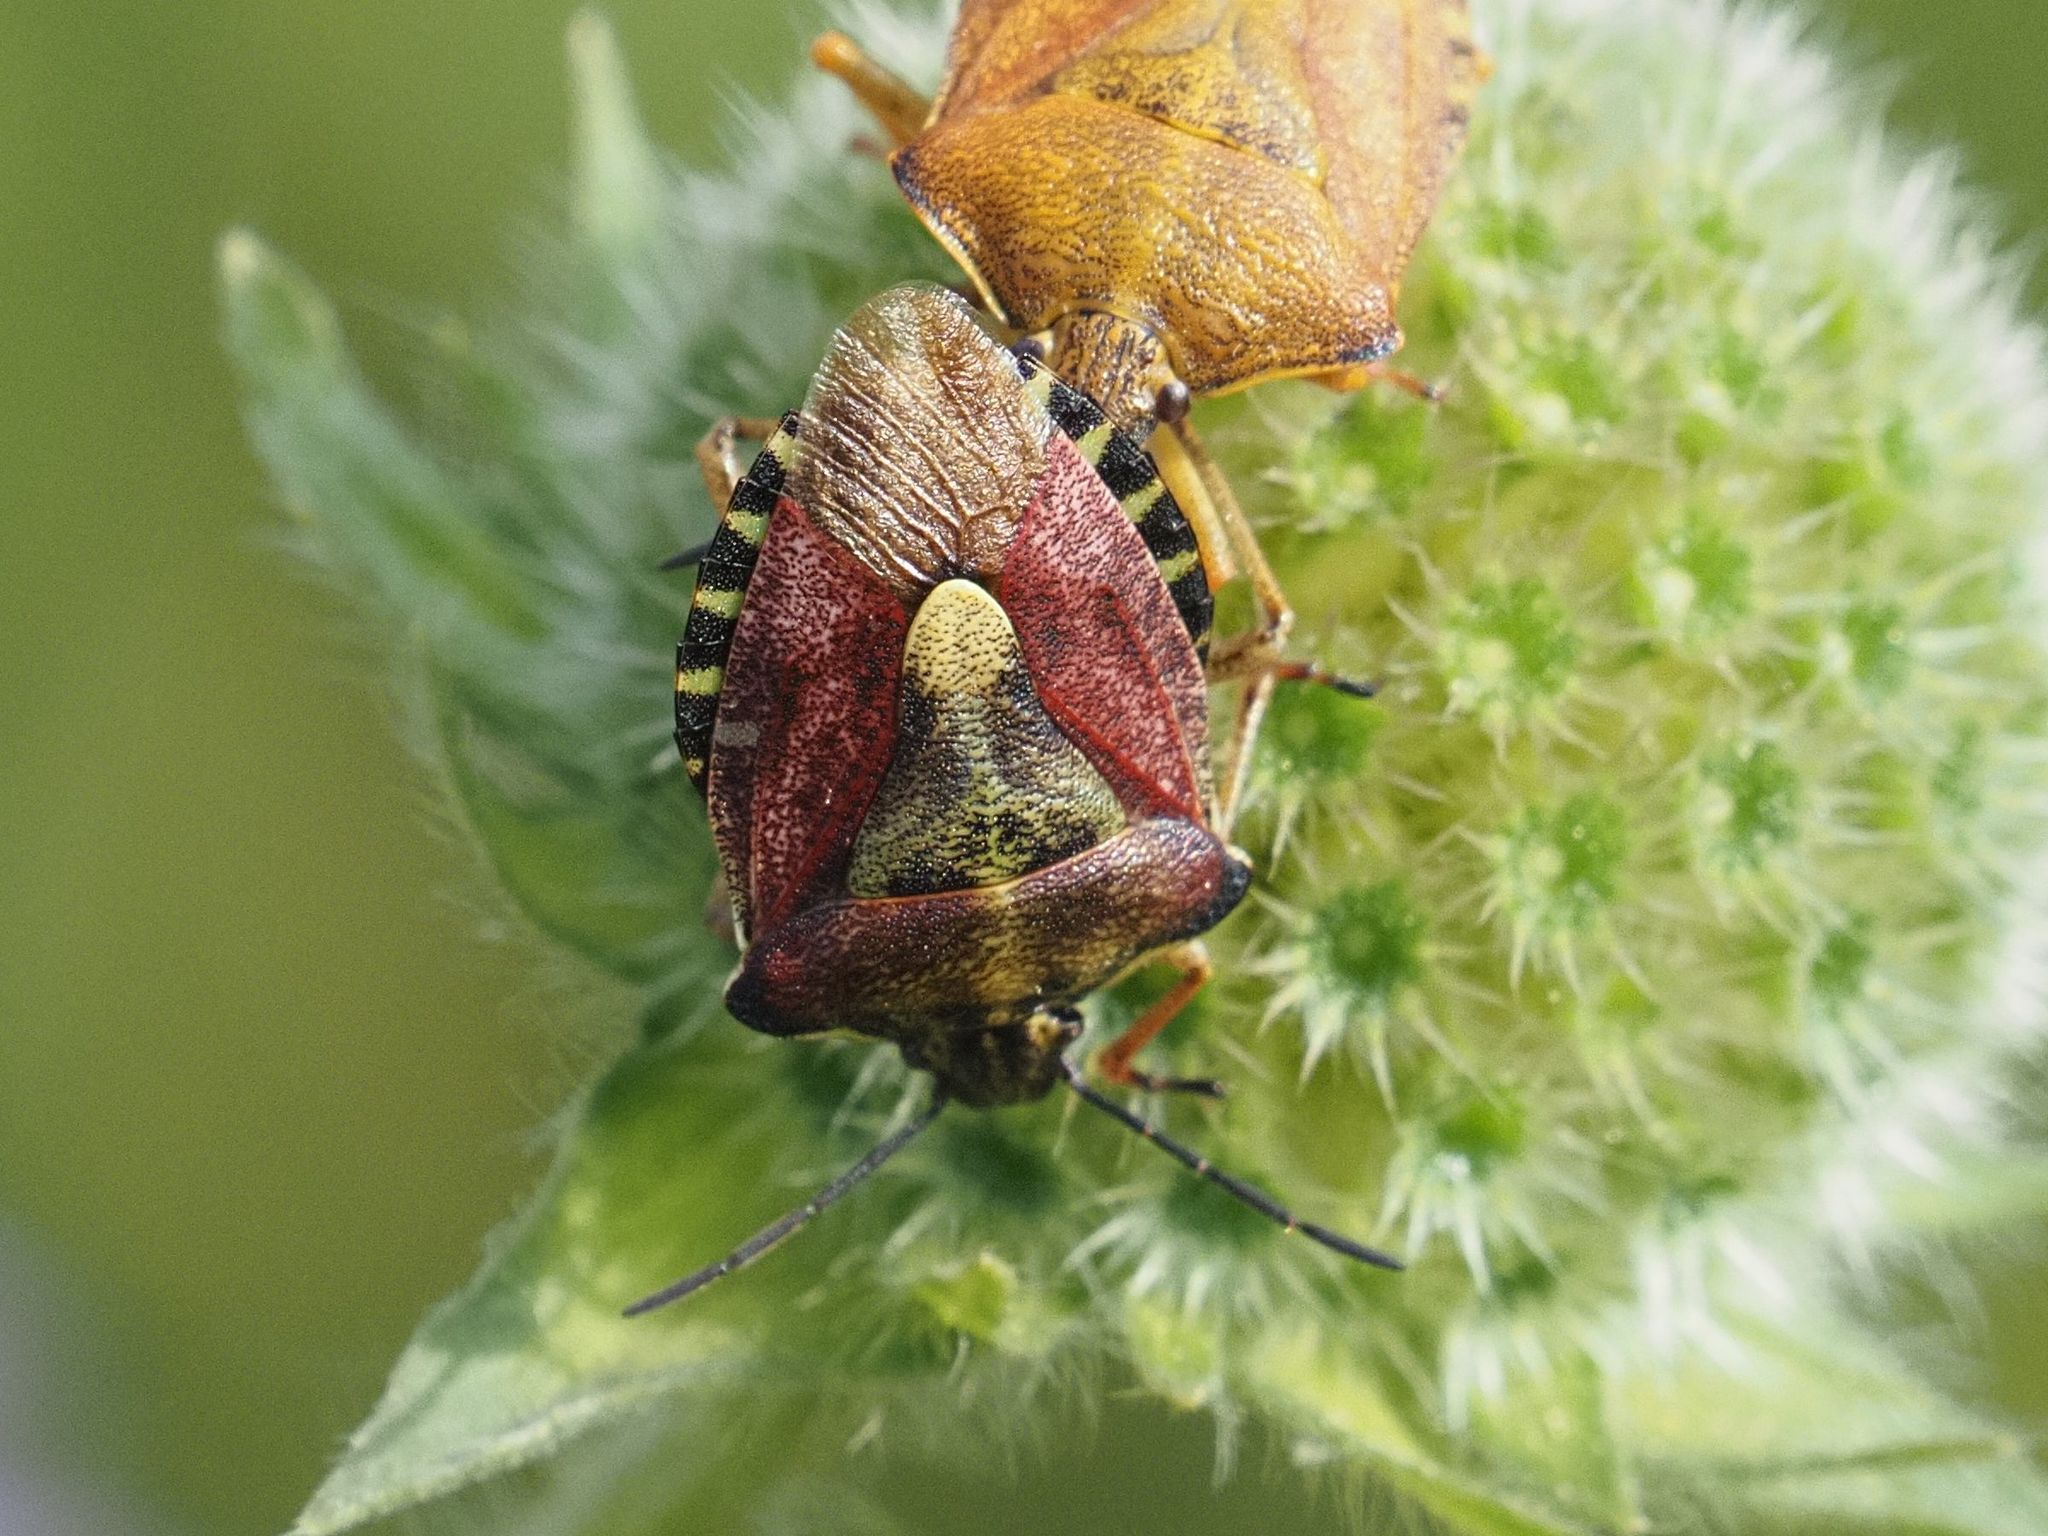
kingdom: Animalia
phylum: Arthropoda
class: Insecta
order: Hemiptera
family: Pentatomidae
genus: Carpocoris
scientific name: Carpocoris purpureipennis
